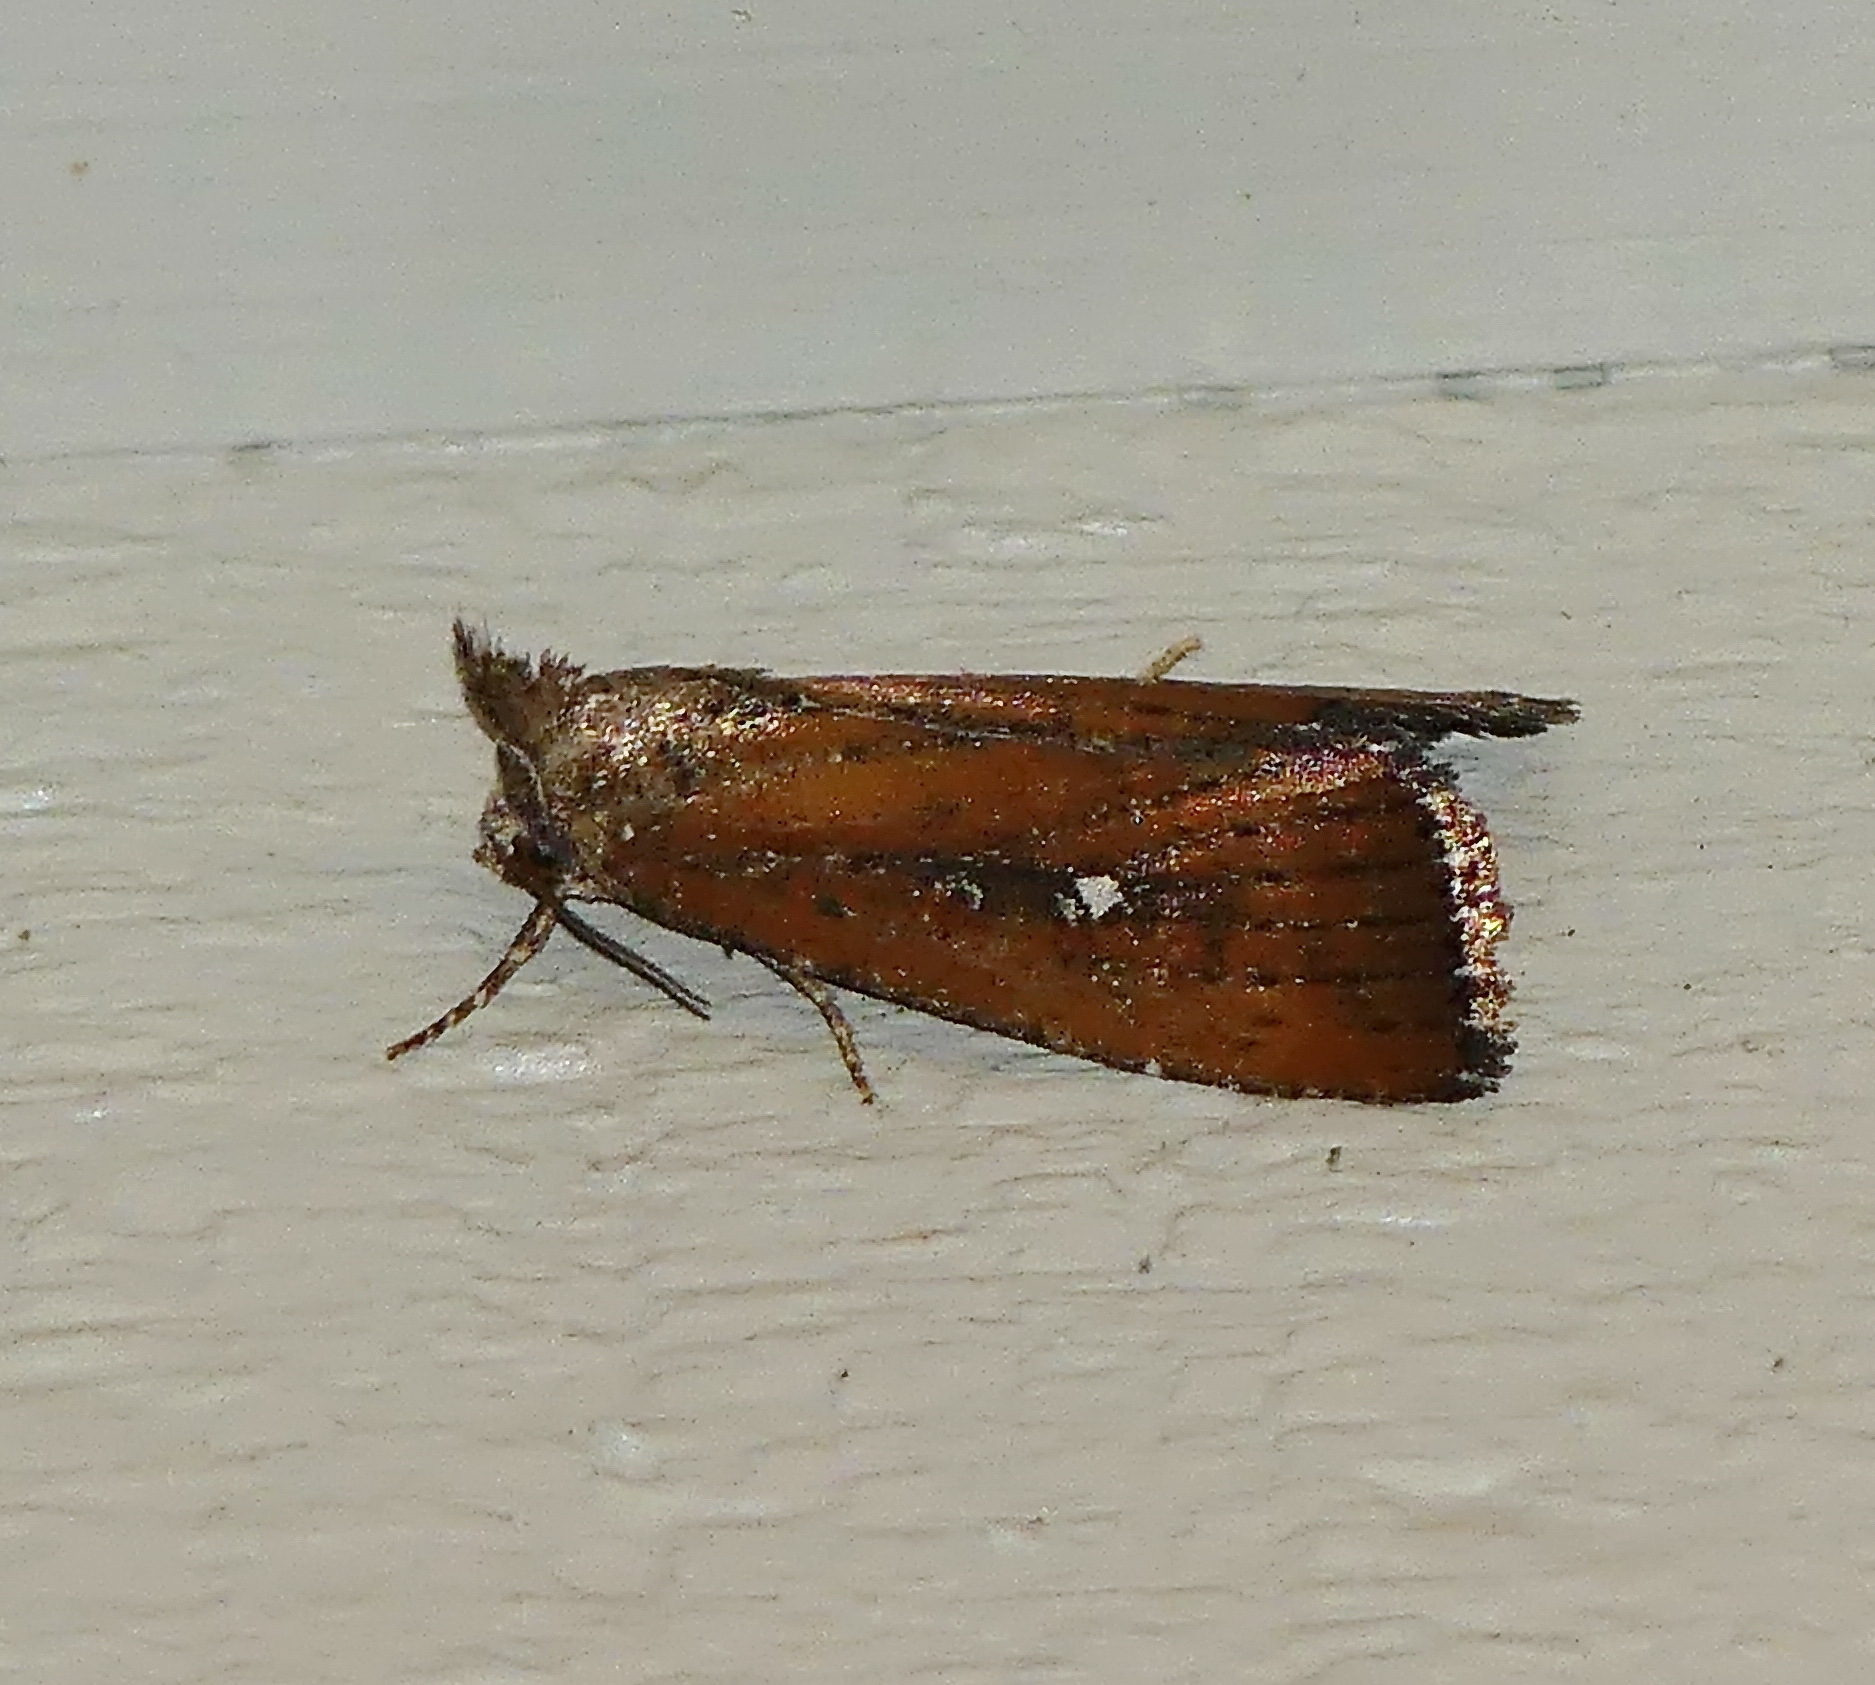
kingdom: Animalia
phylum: Arthropoda
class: Insecta
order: Lepidoptera
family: Noctuidae
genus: Condica
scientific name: Condica videns
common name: White-dotted groundling
